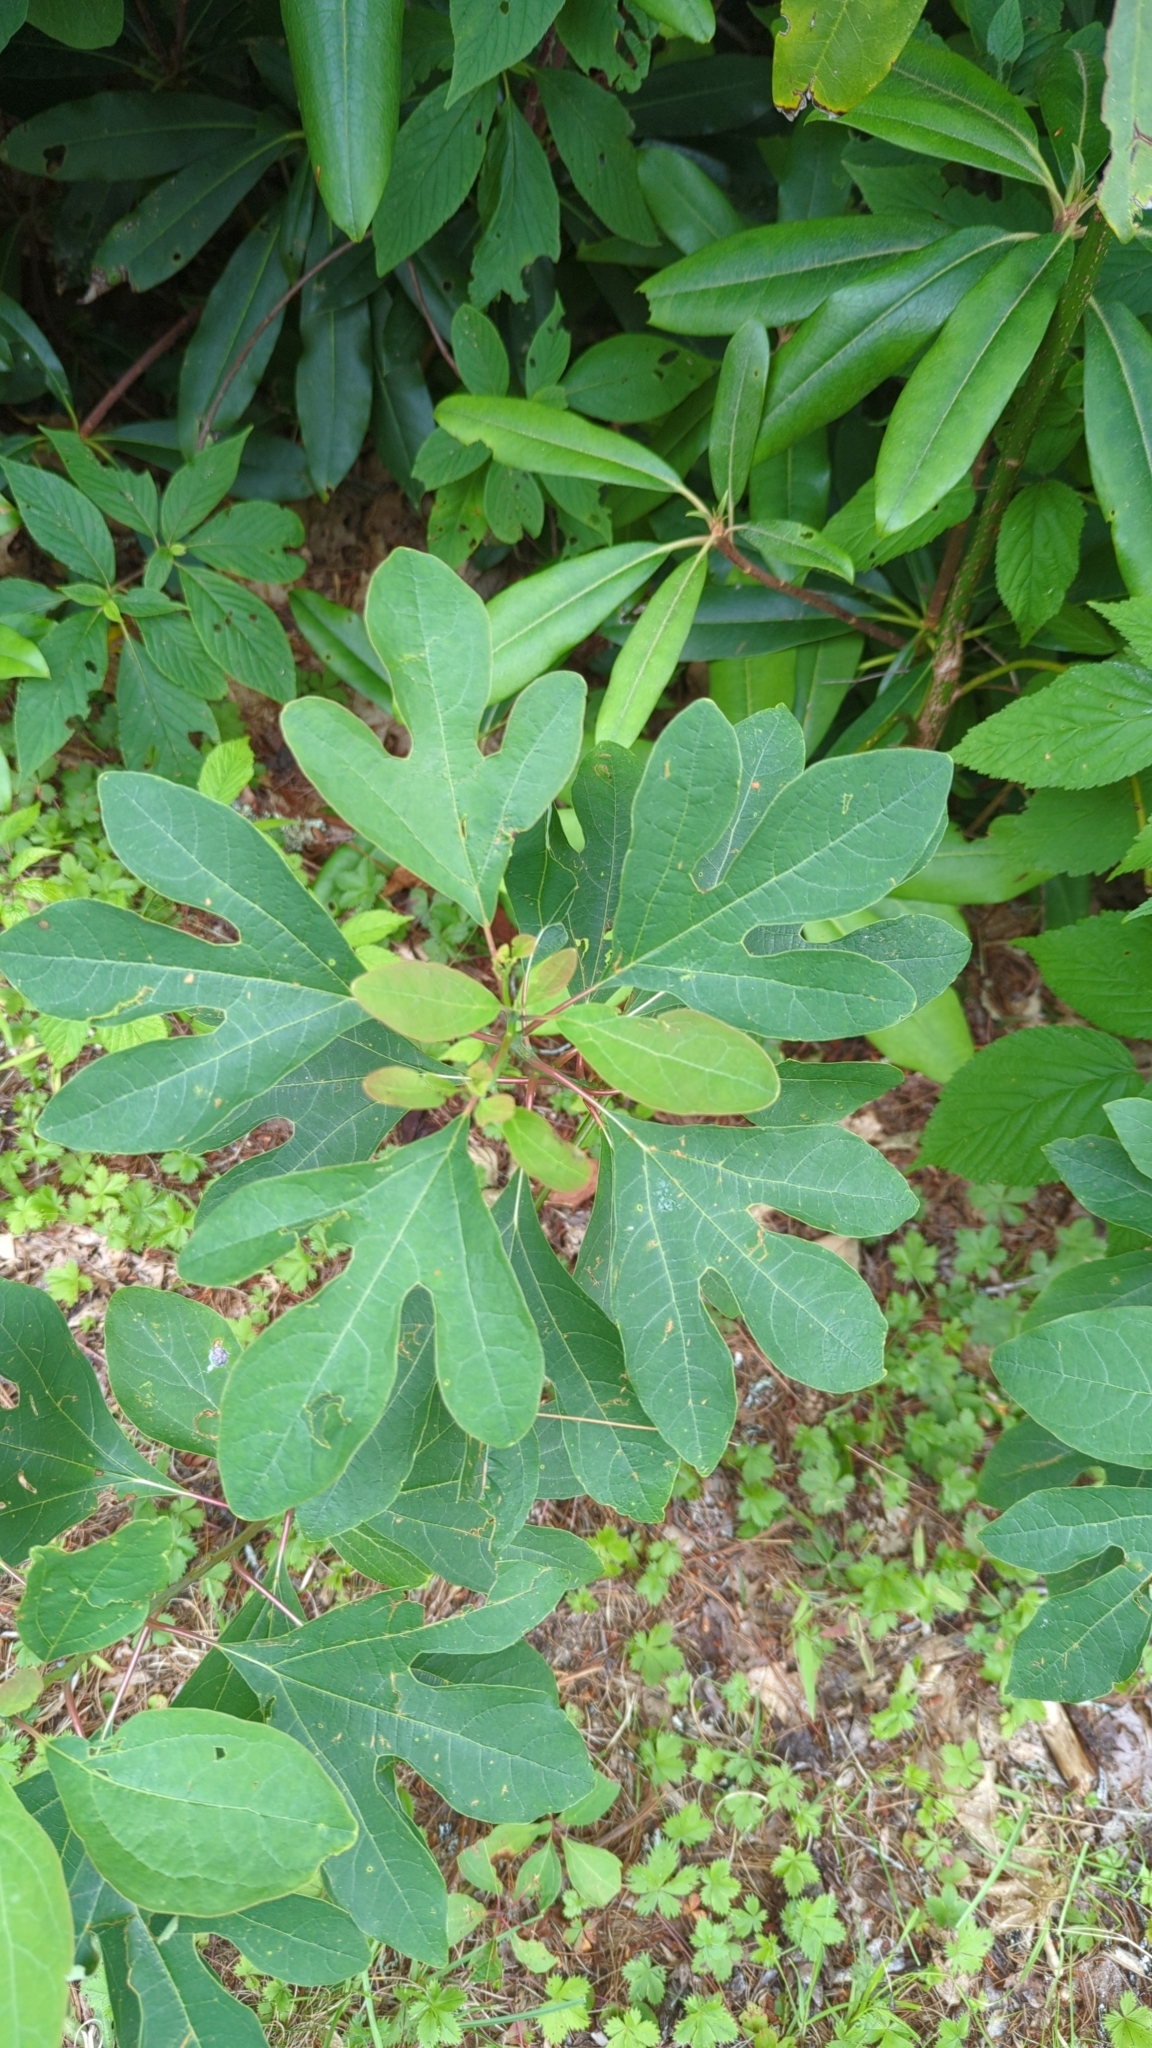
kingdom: Plantae
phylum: Tracheophyta
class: Magnoliopsida
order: Laurales
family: Lauraceae
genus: Sassafras
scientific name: Sassafras albidum
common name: Sassafras
